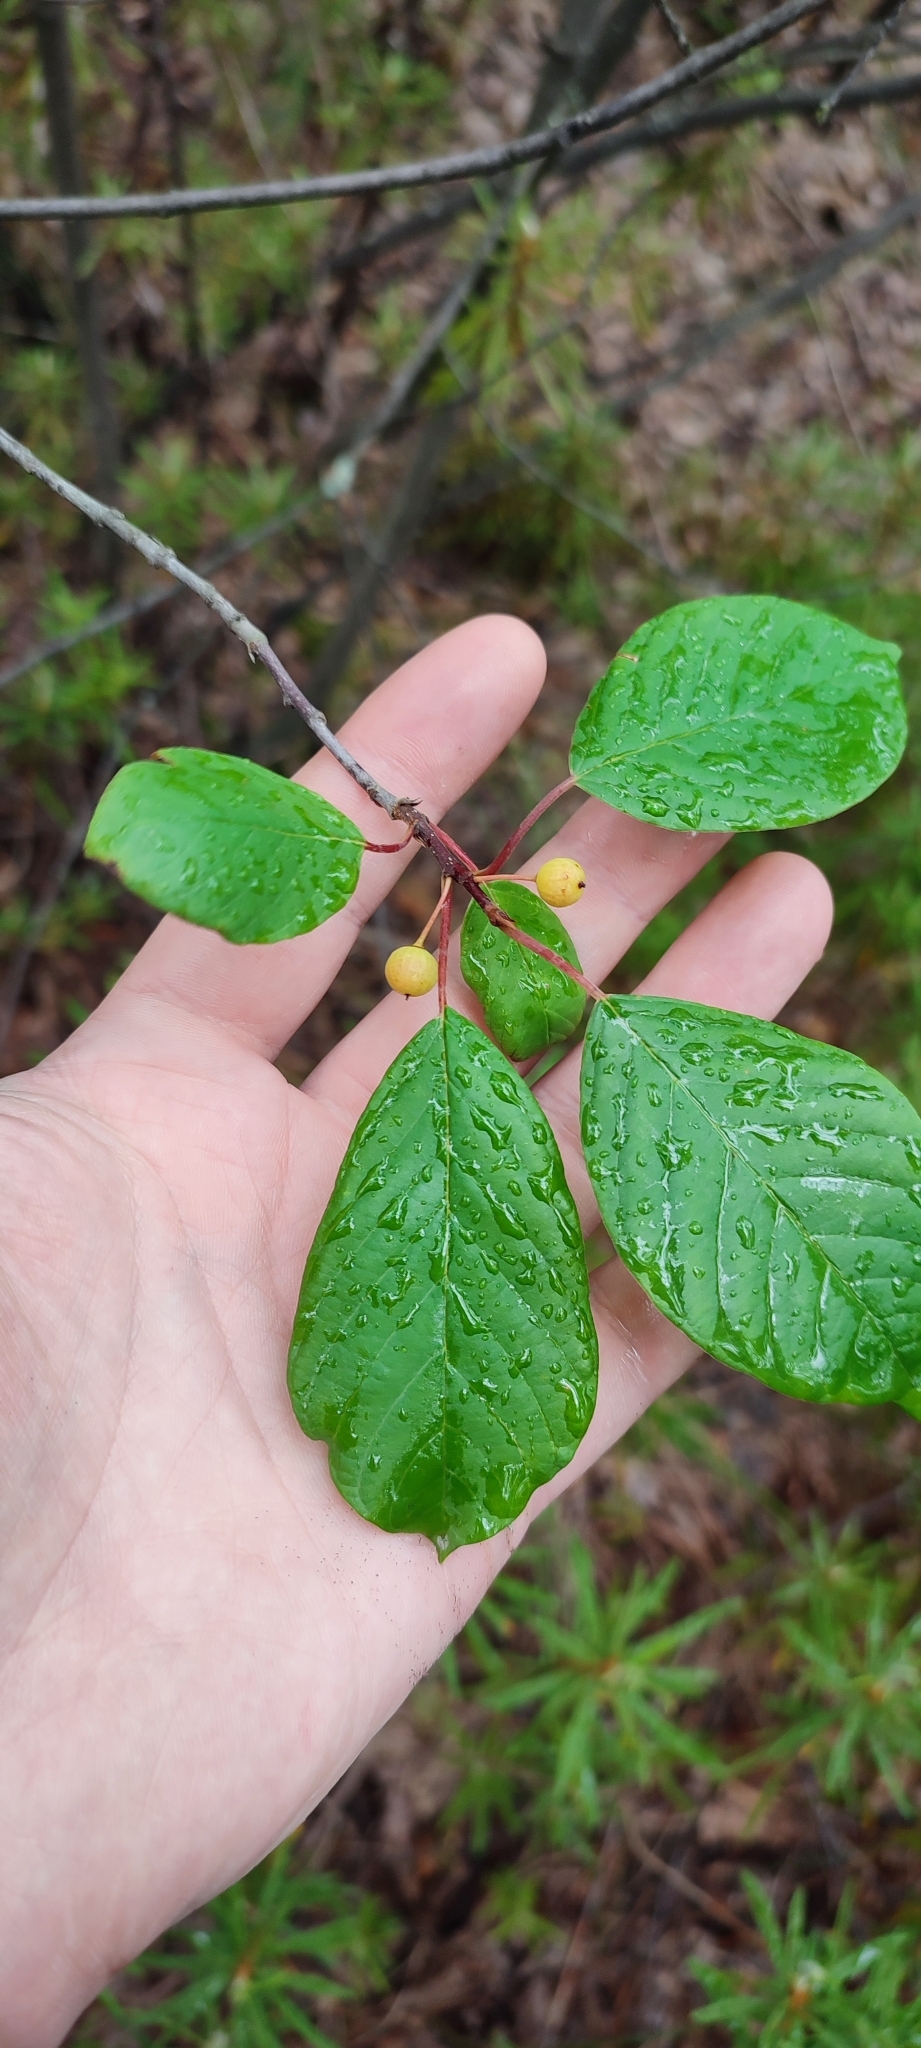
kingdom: Plantae
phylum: Tracheophyta
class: Magnoliopsida
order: Rosales
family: Rhamnaceae
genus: Frangula
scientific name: Frangula alnus
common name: Alder buckthorn
